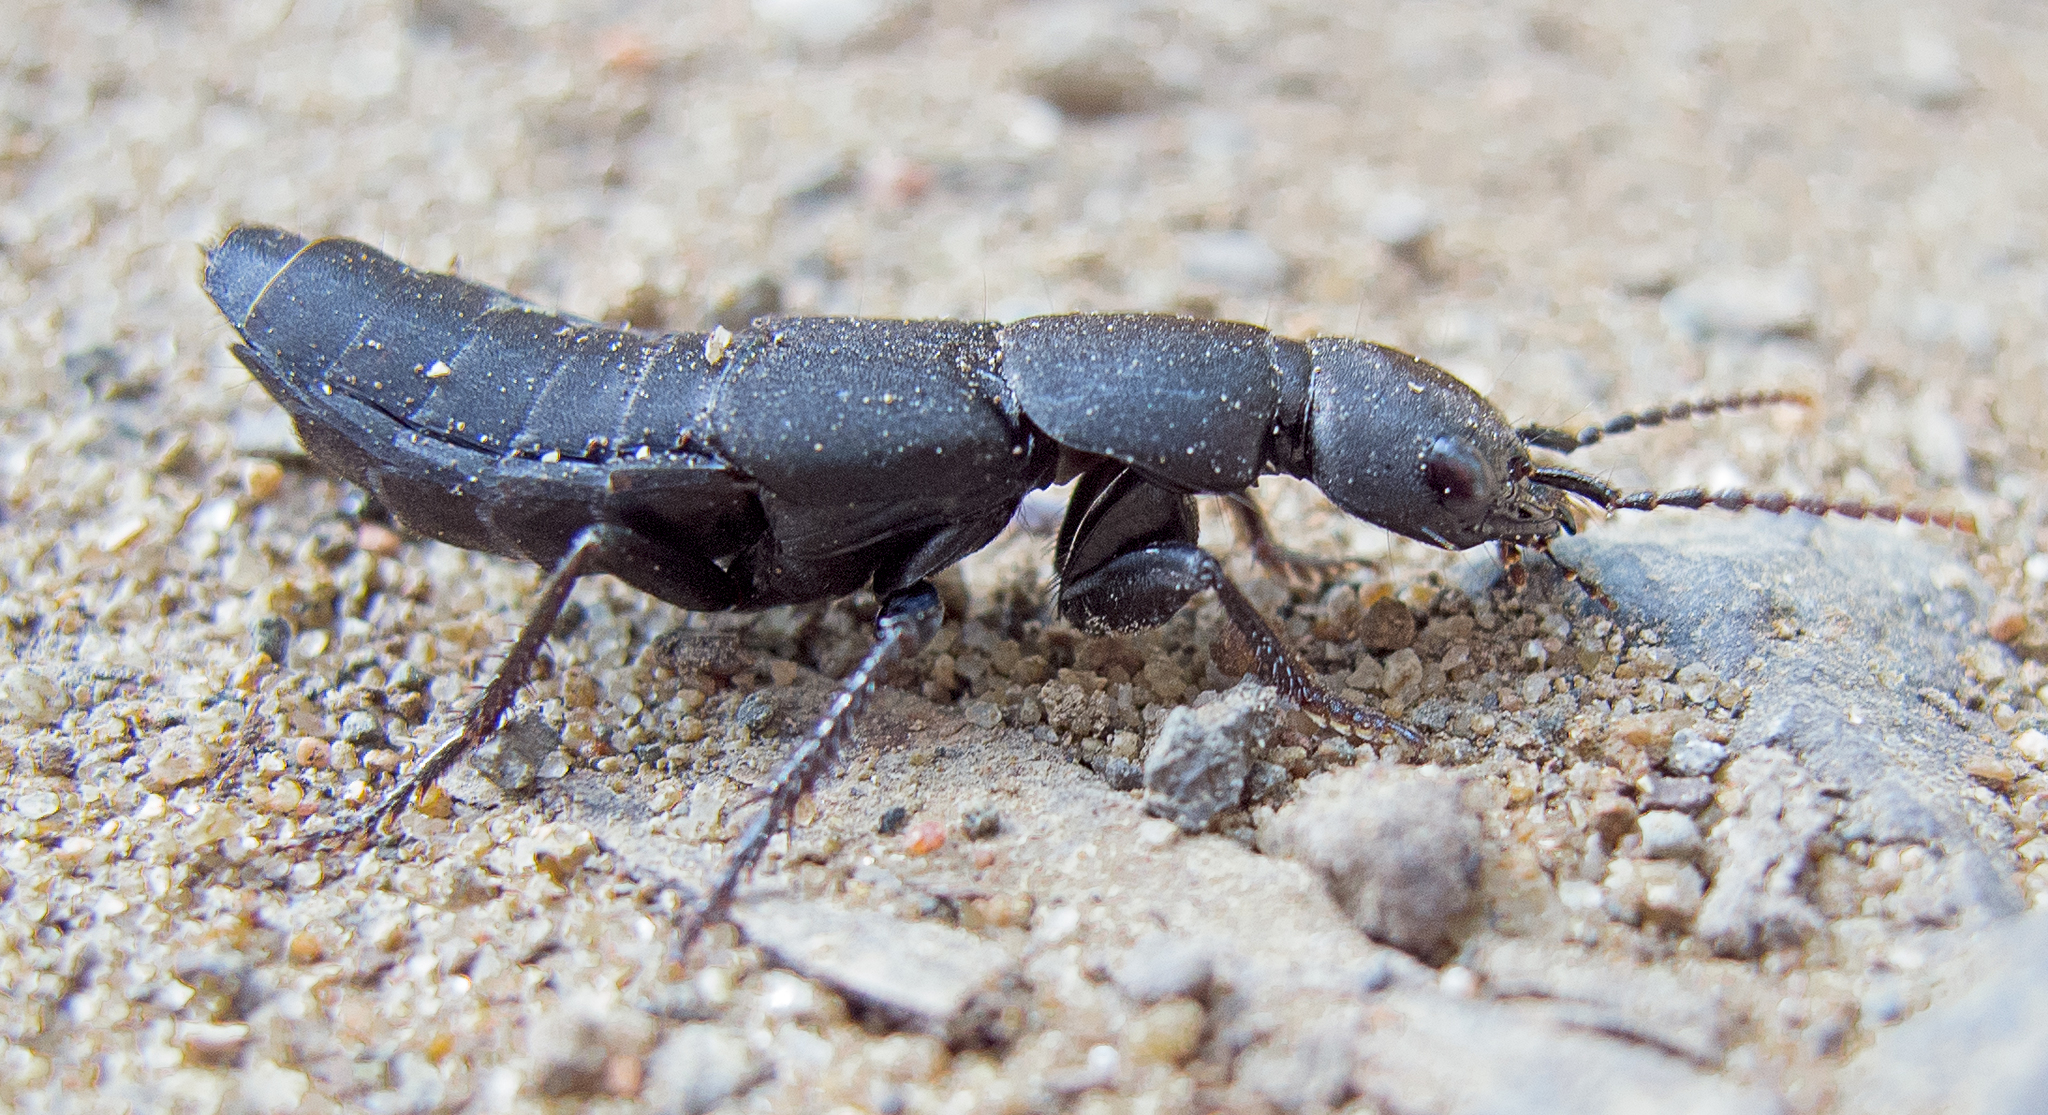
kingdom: Animalia
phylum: Arthropoda
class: Insecta
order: Coleoptera
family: Staphylinidae
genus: Ocypus
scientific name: Ocypus olens
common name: Devil's coach-horse
